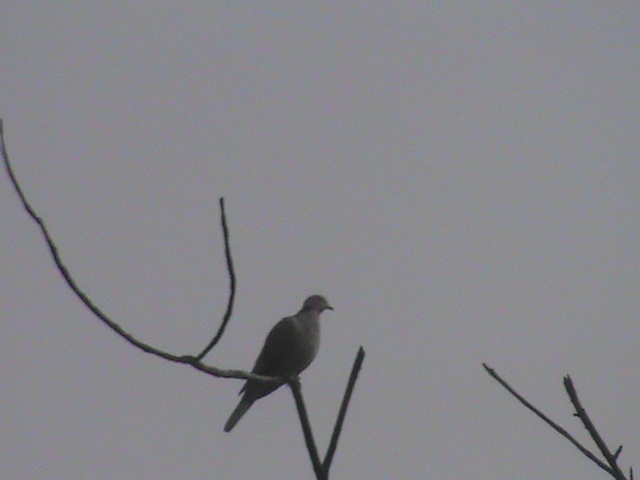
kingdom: Animalia
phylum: Chordata
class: Aves
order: Columbiformes
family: Columbidae
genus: Streptopelia
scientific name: Streptopelia decaocto
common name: Eurasian collared dove
